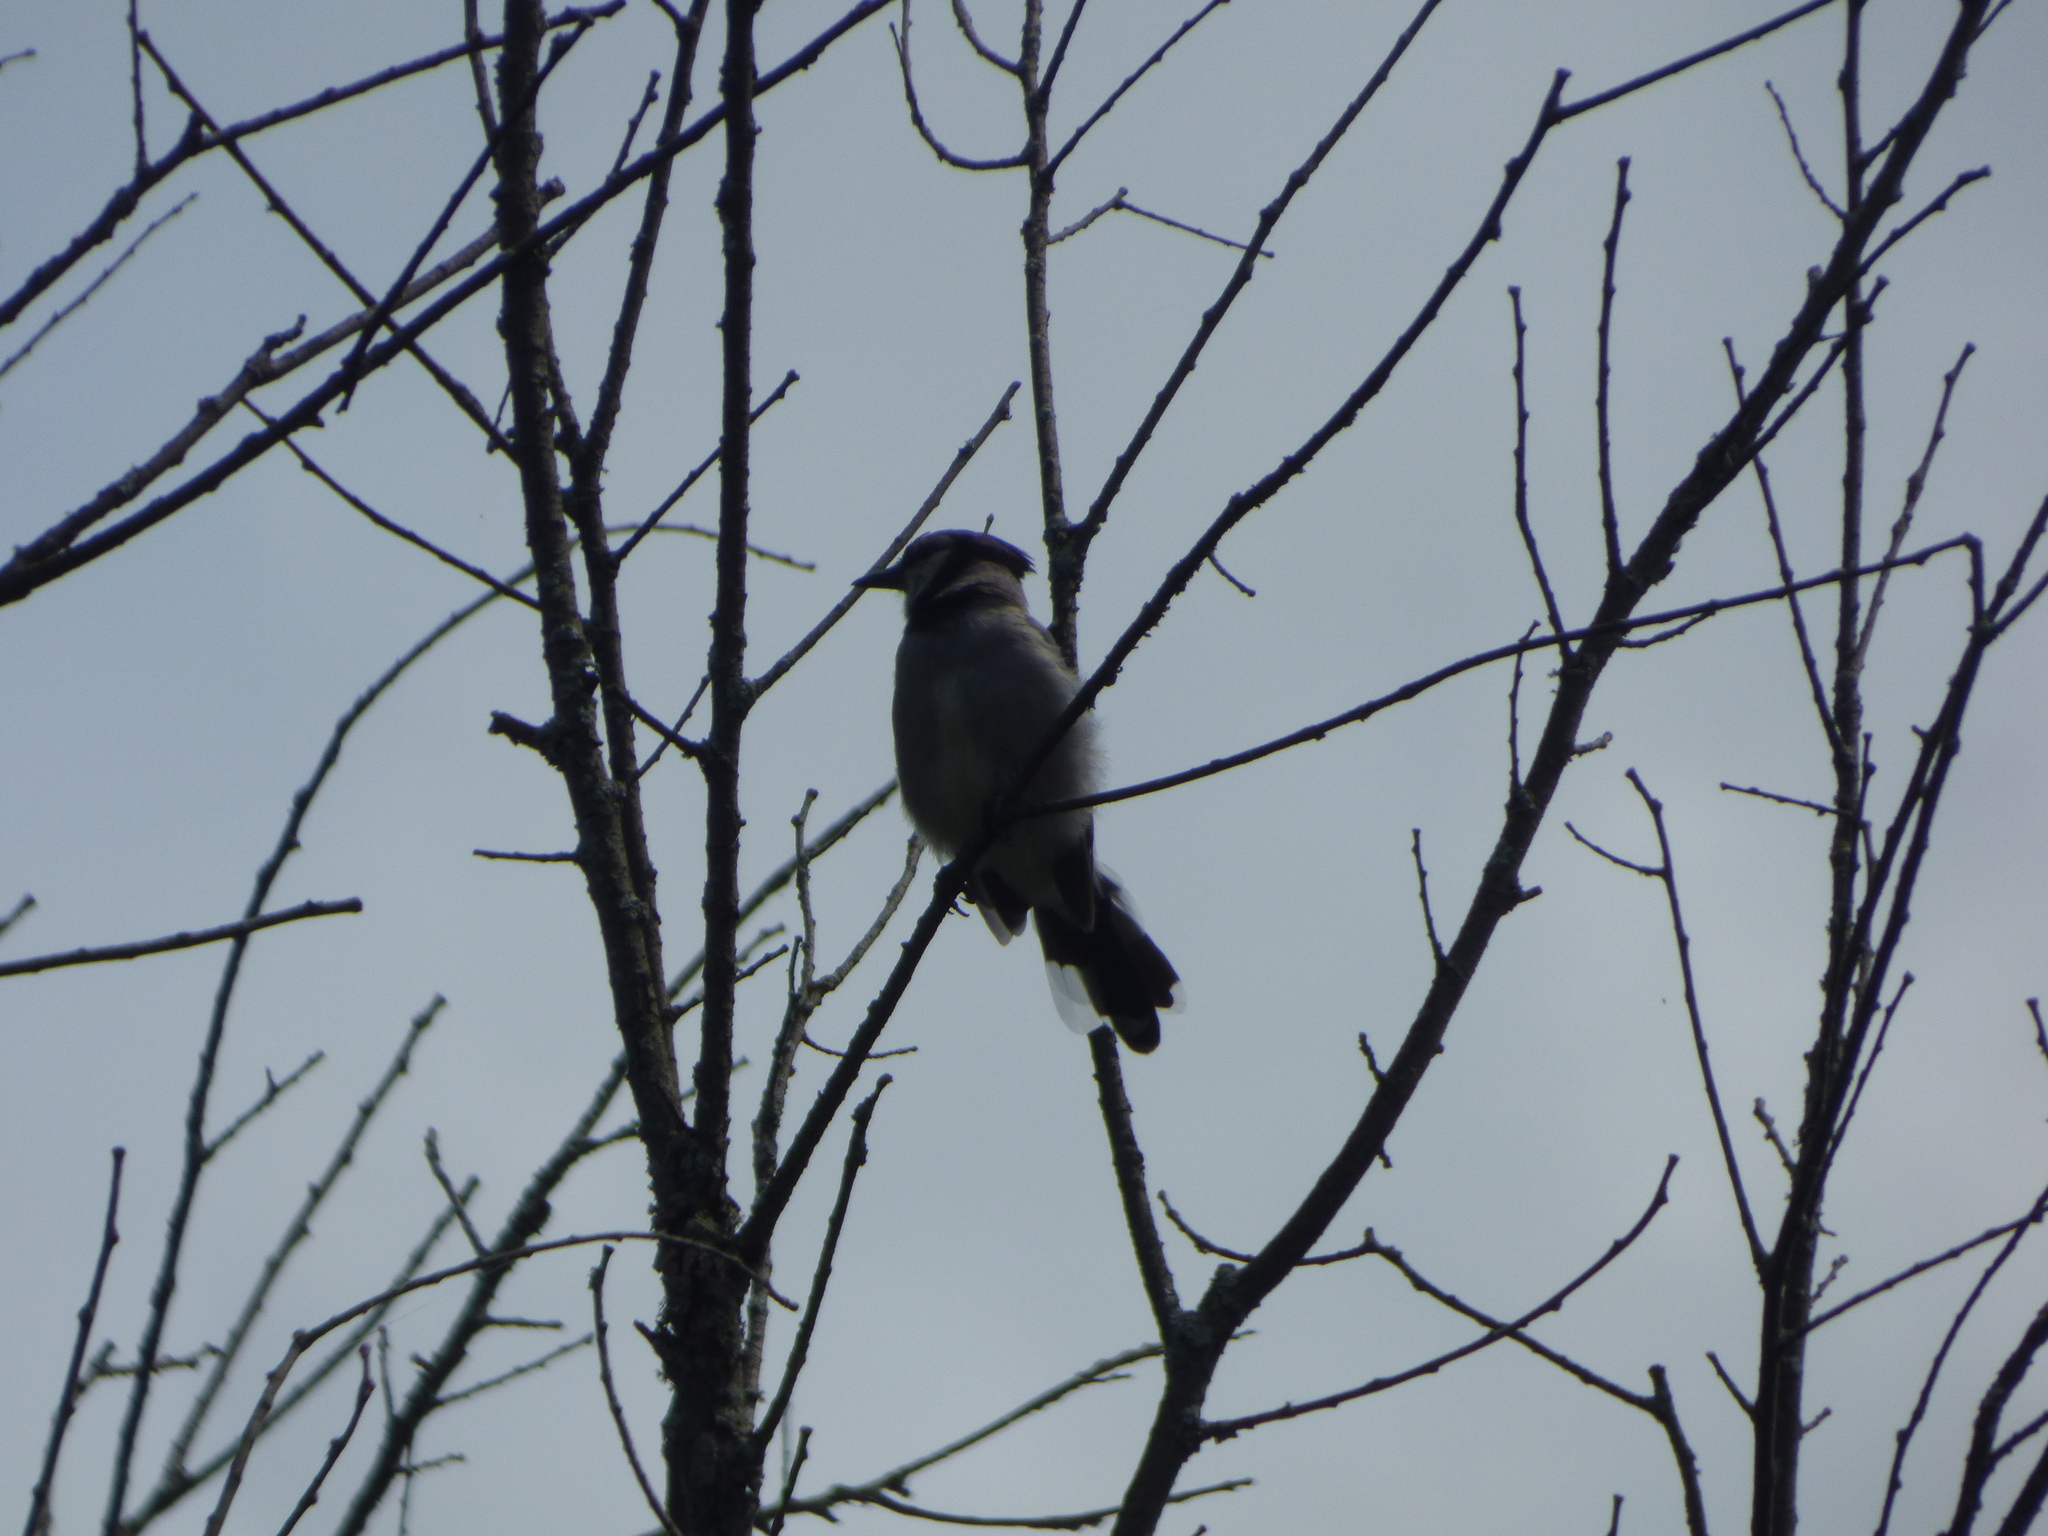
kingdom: Animalia
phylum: Chordata
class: Aves
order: Passeriformes
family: Corvidae
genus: Cyanocitta
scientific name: Cyanocitta cristata
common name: Blue jay
